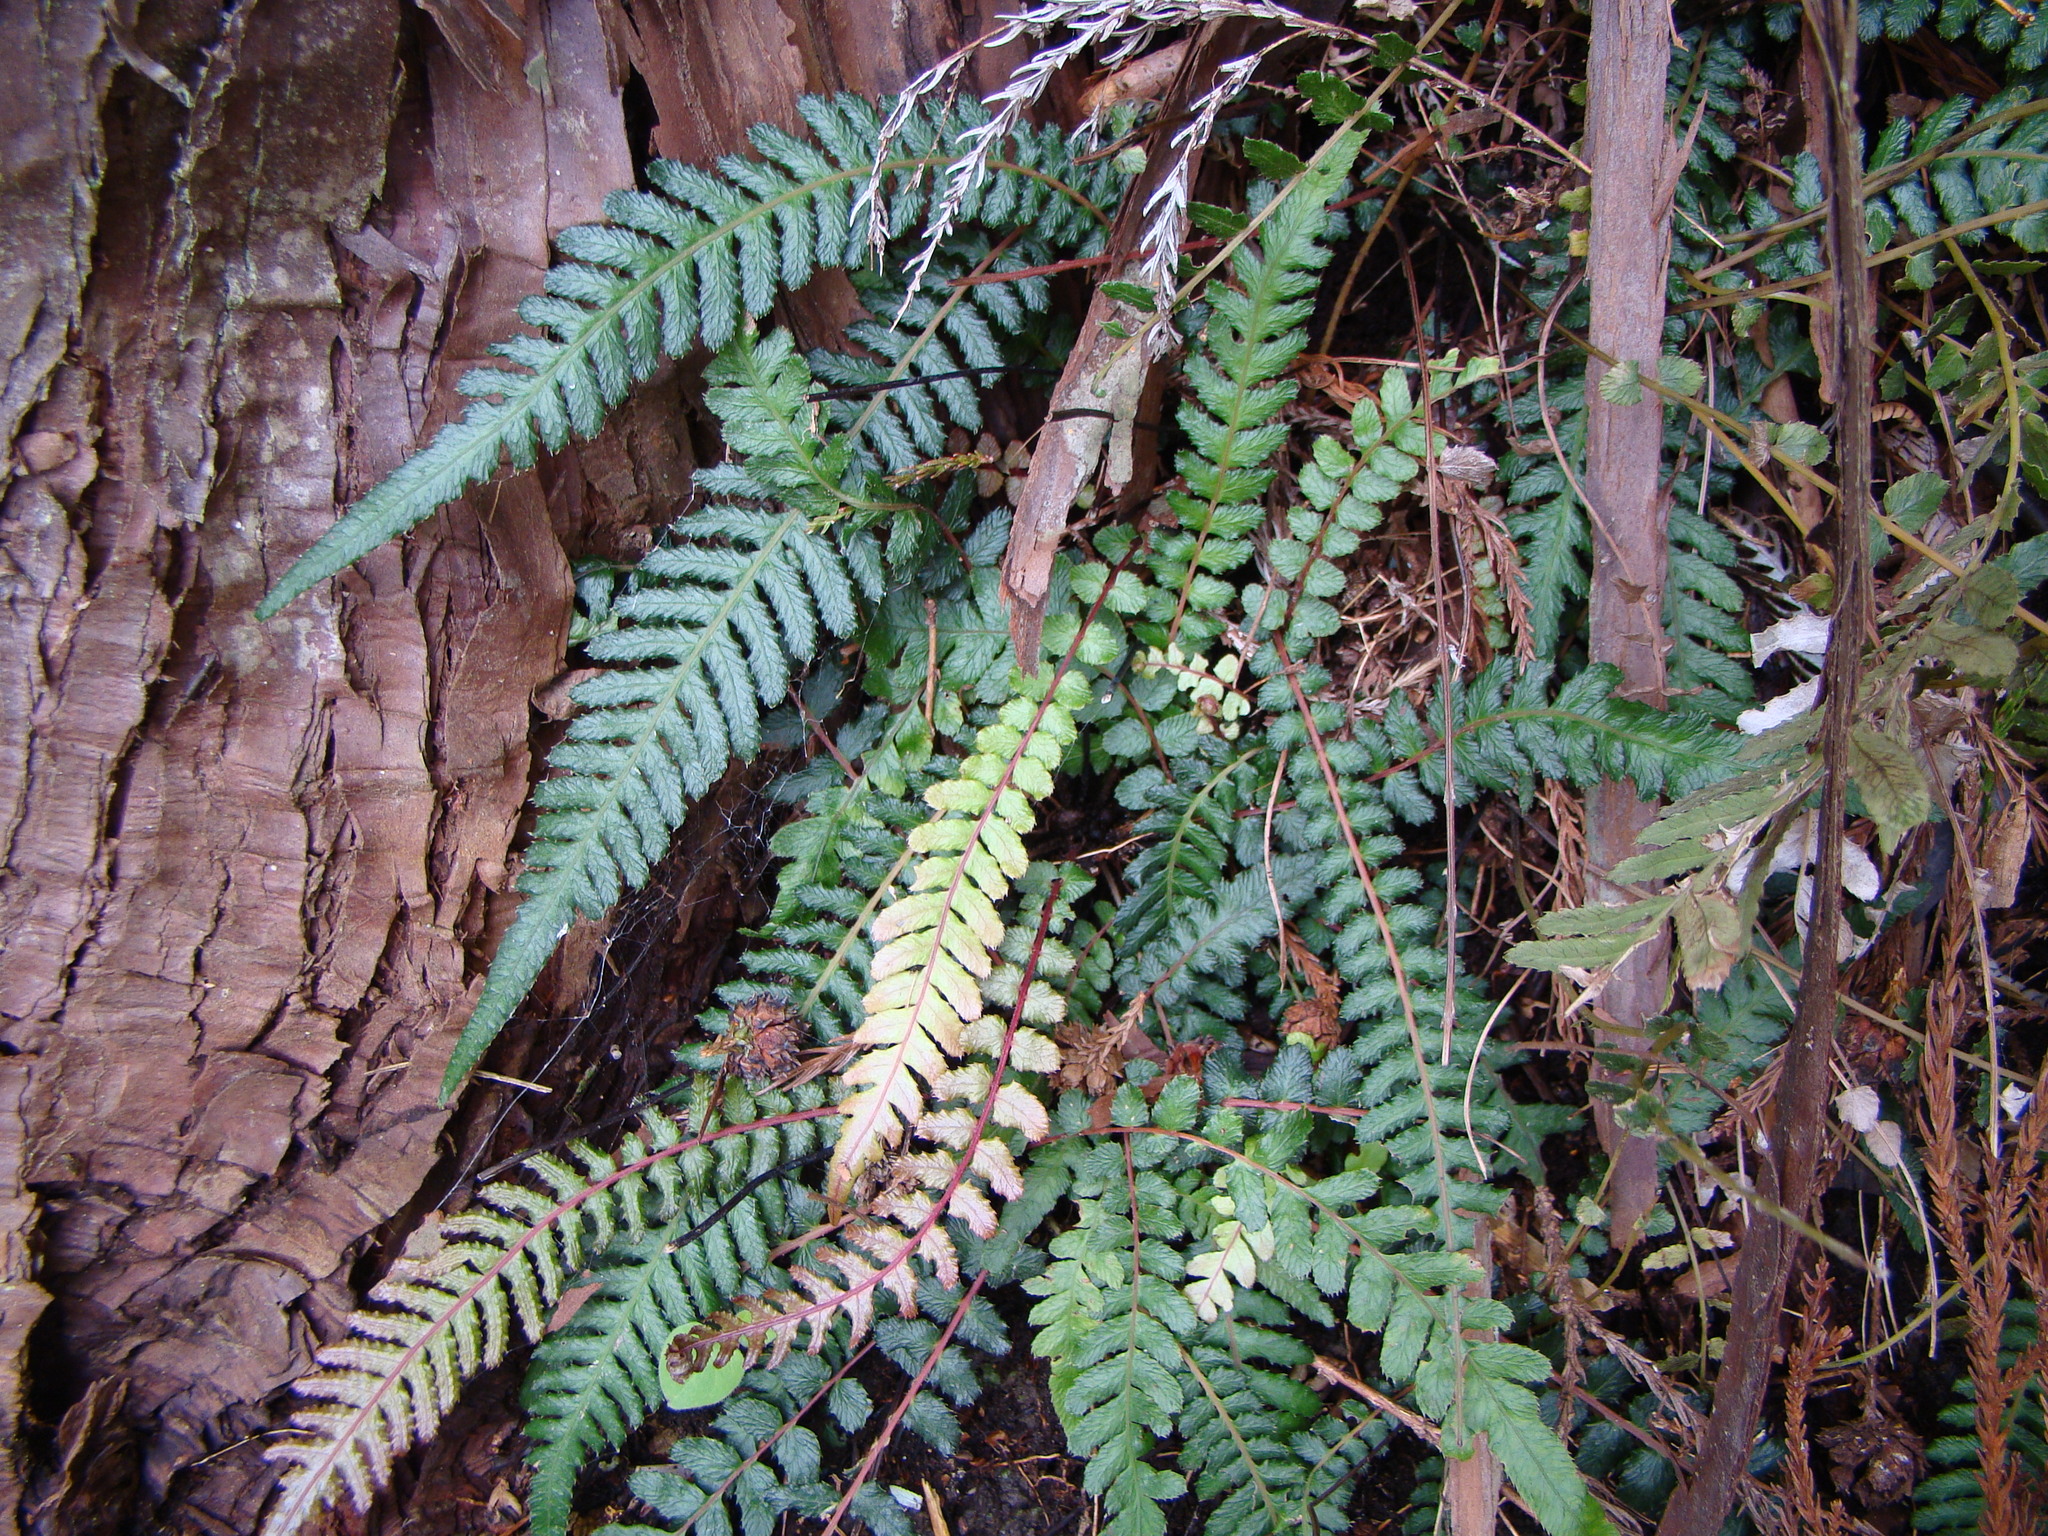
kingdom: Plantae
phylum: Tracheophyta
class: Polypodiopsida
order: Polypodiales
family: Blechnaceae
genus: Doodia
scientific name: Doodia australis
